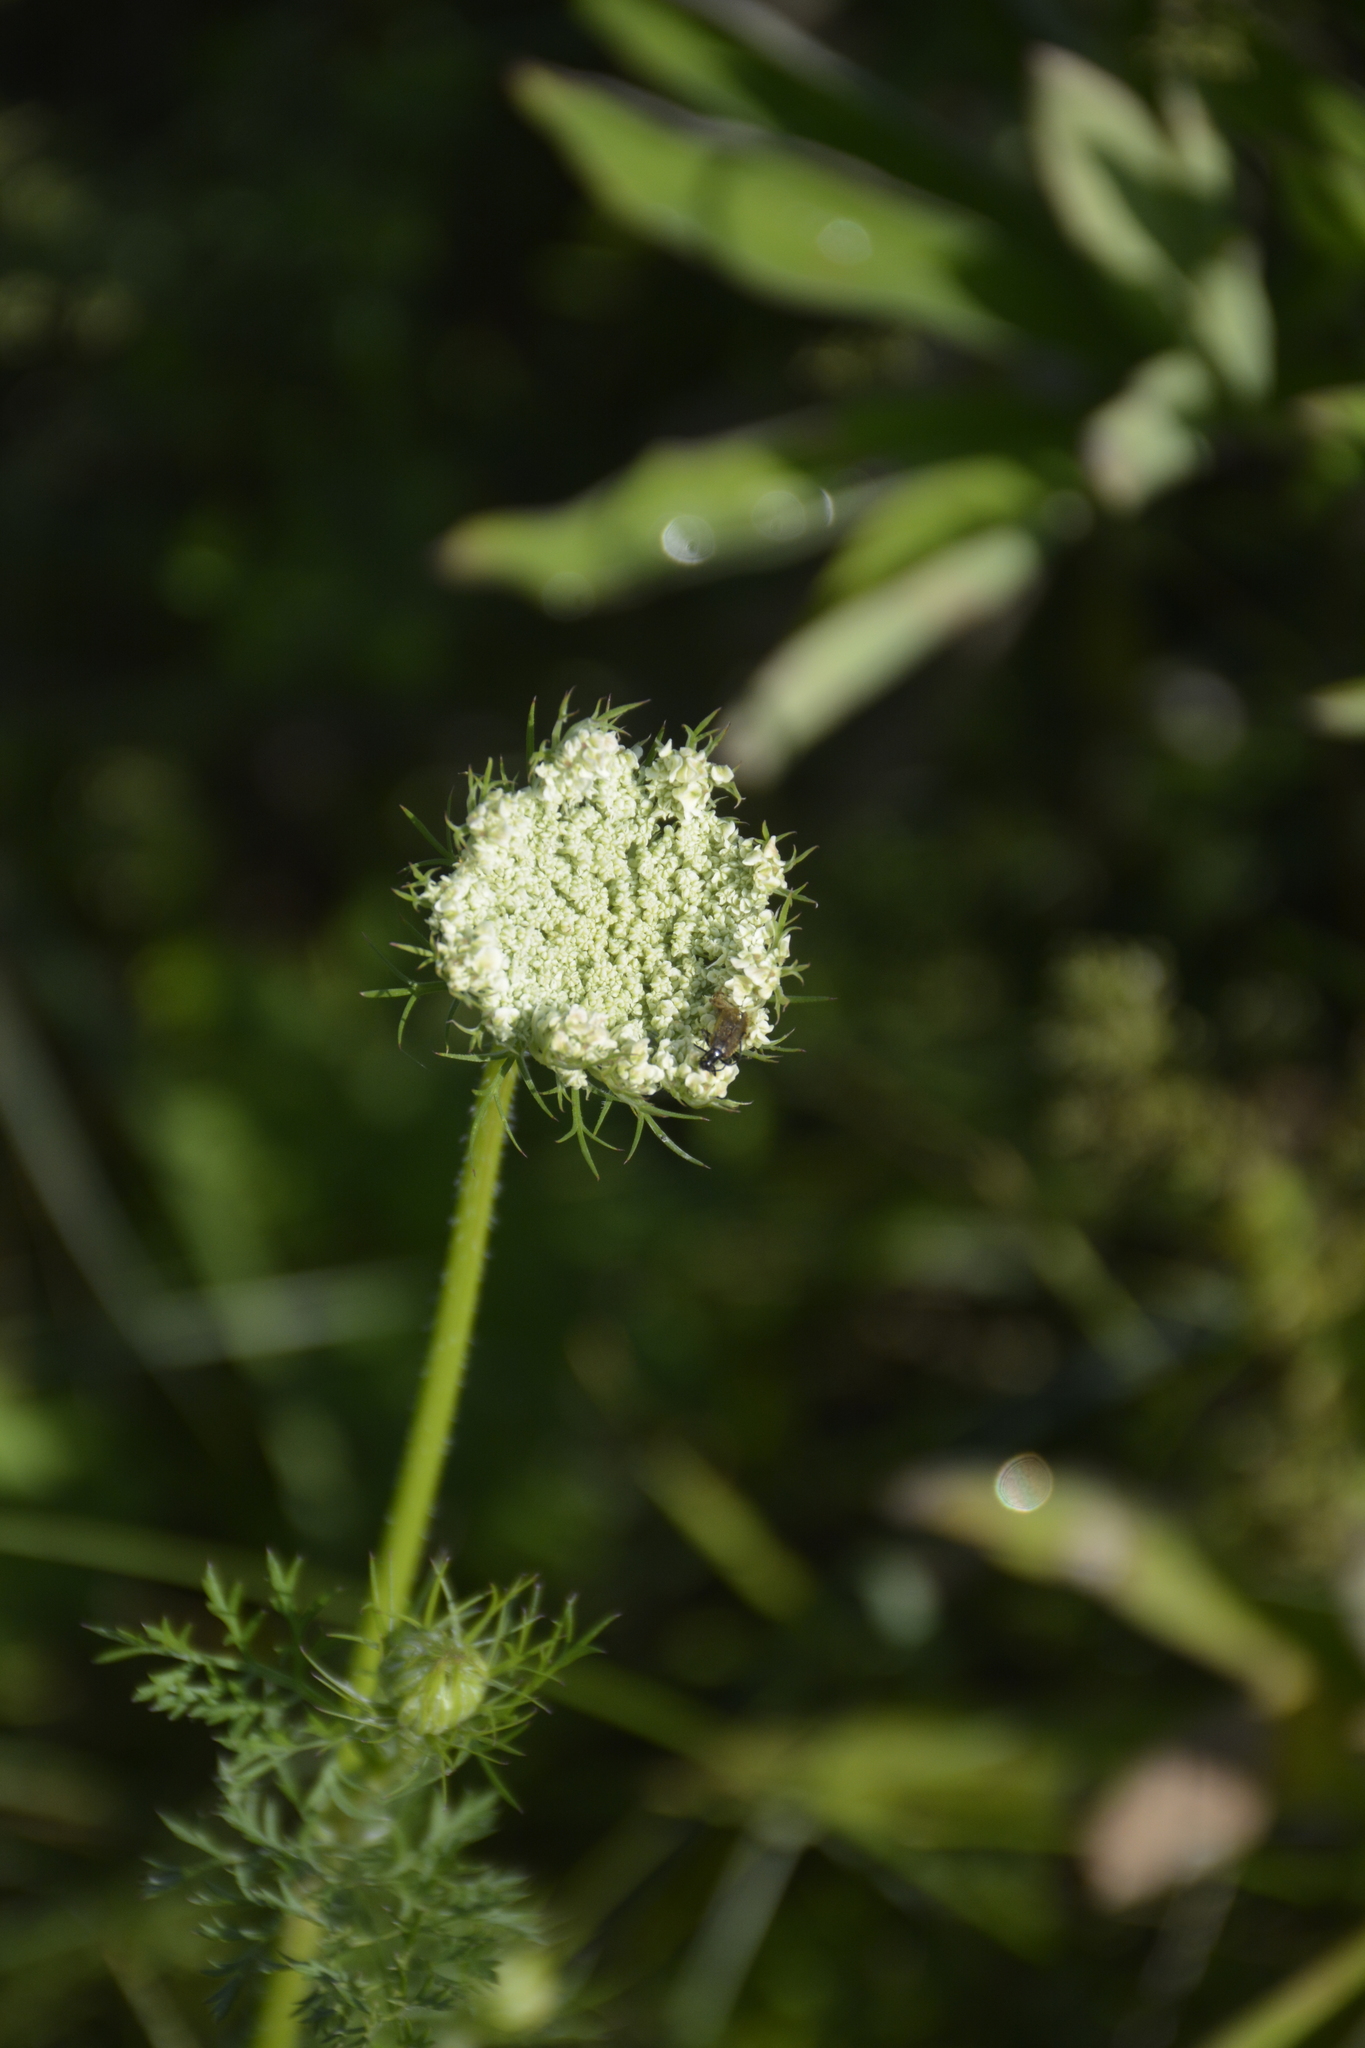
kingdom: Plantae
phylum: Tracheophyta
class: Magnoliopsida
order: Apiales
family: Apiaceae
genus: Daucus
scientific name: Daucus carota
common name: Wild carrot
